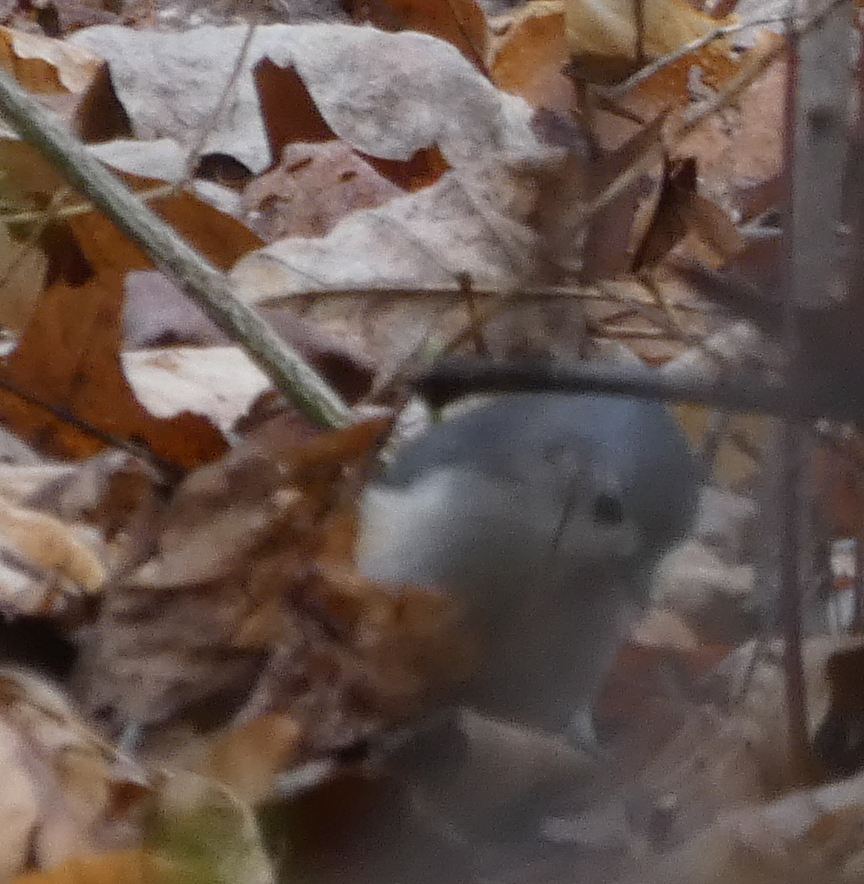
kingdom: Animalia
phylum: Chordata
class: Aves
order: Passeriformes
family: Paridae
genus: Baeolophus
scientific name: Baeolophus bicolor
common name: Tufted titmouse
